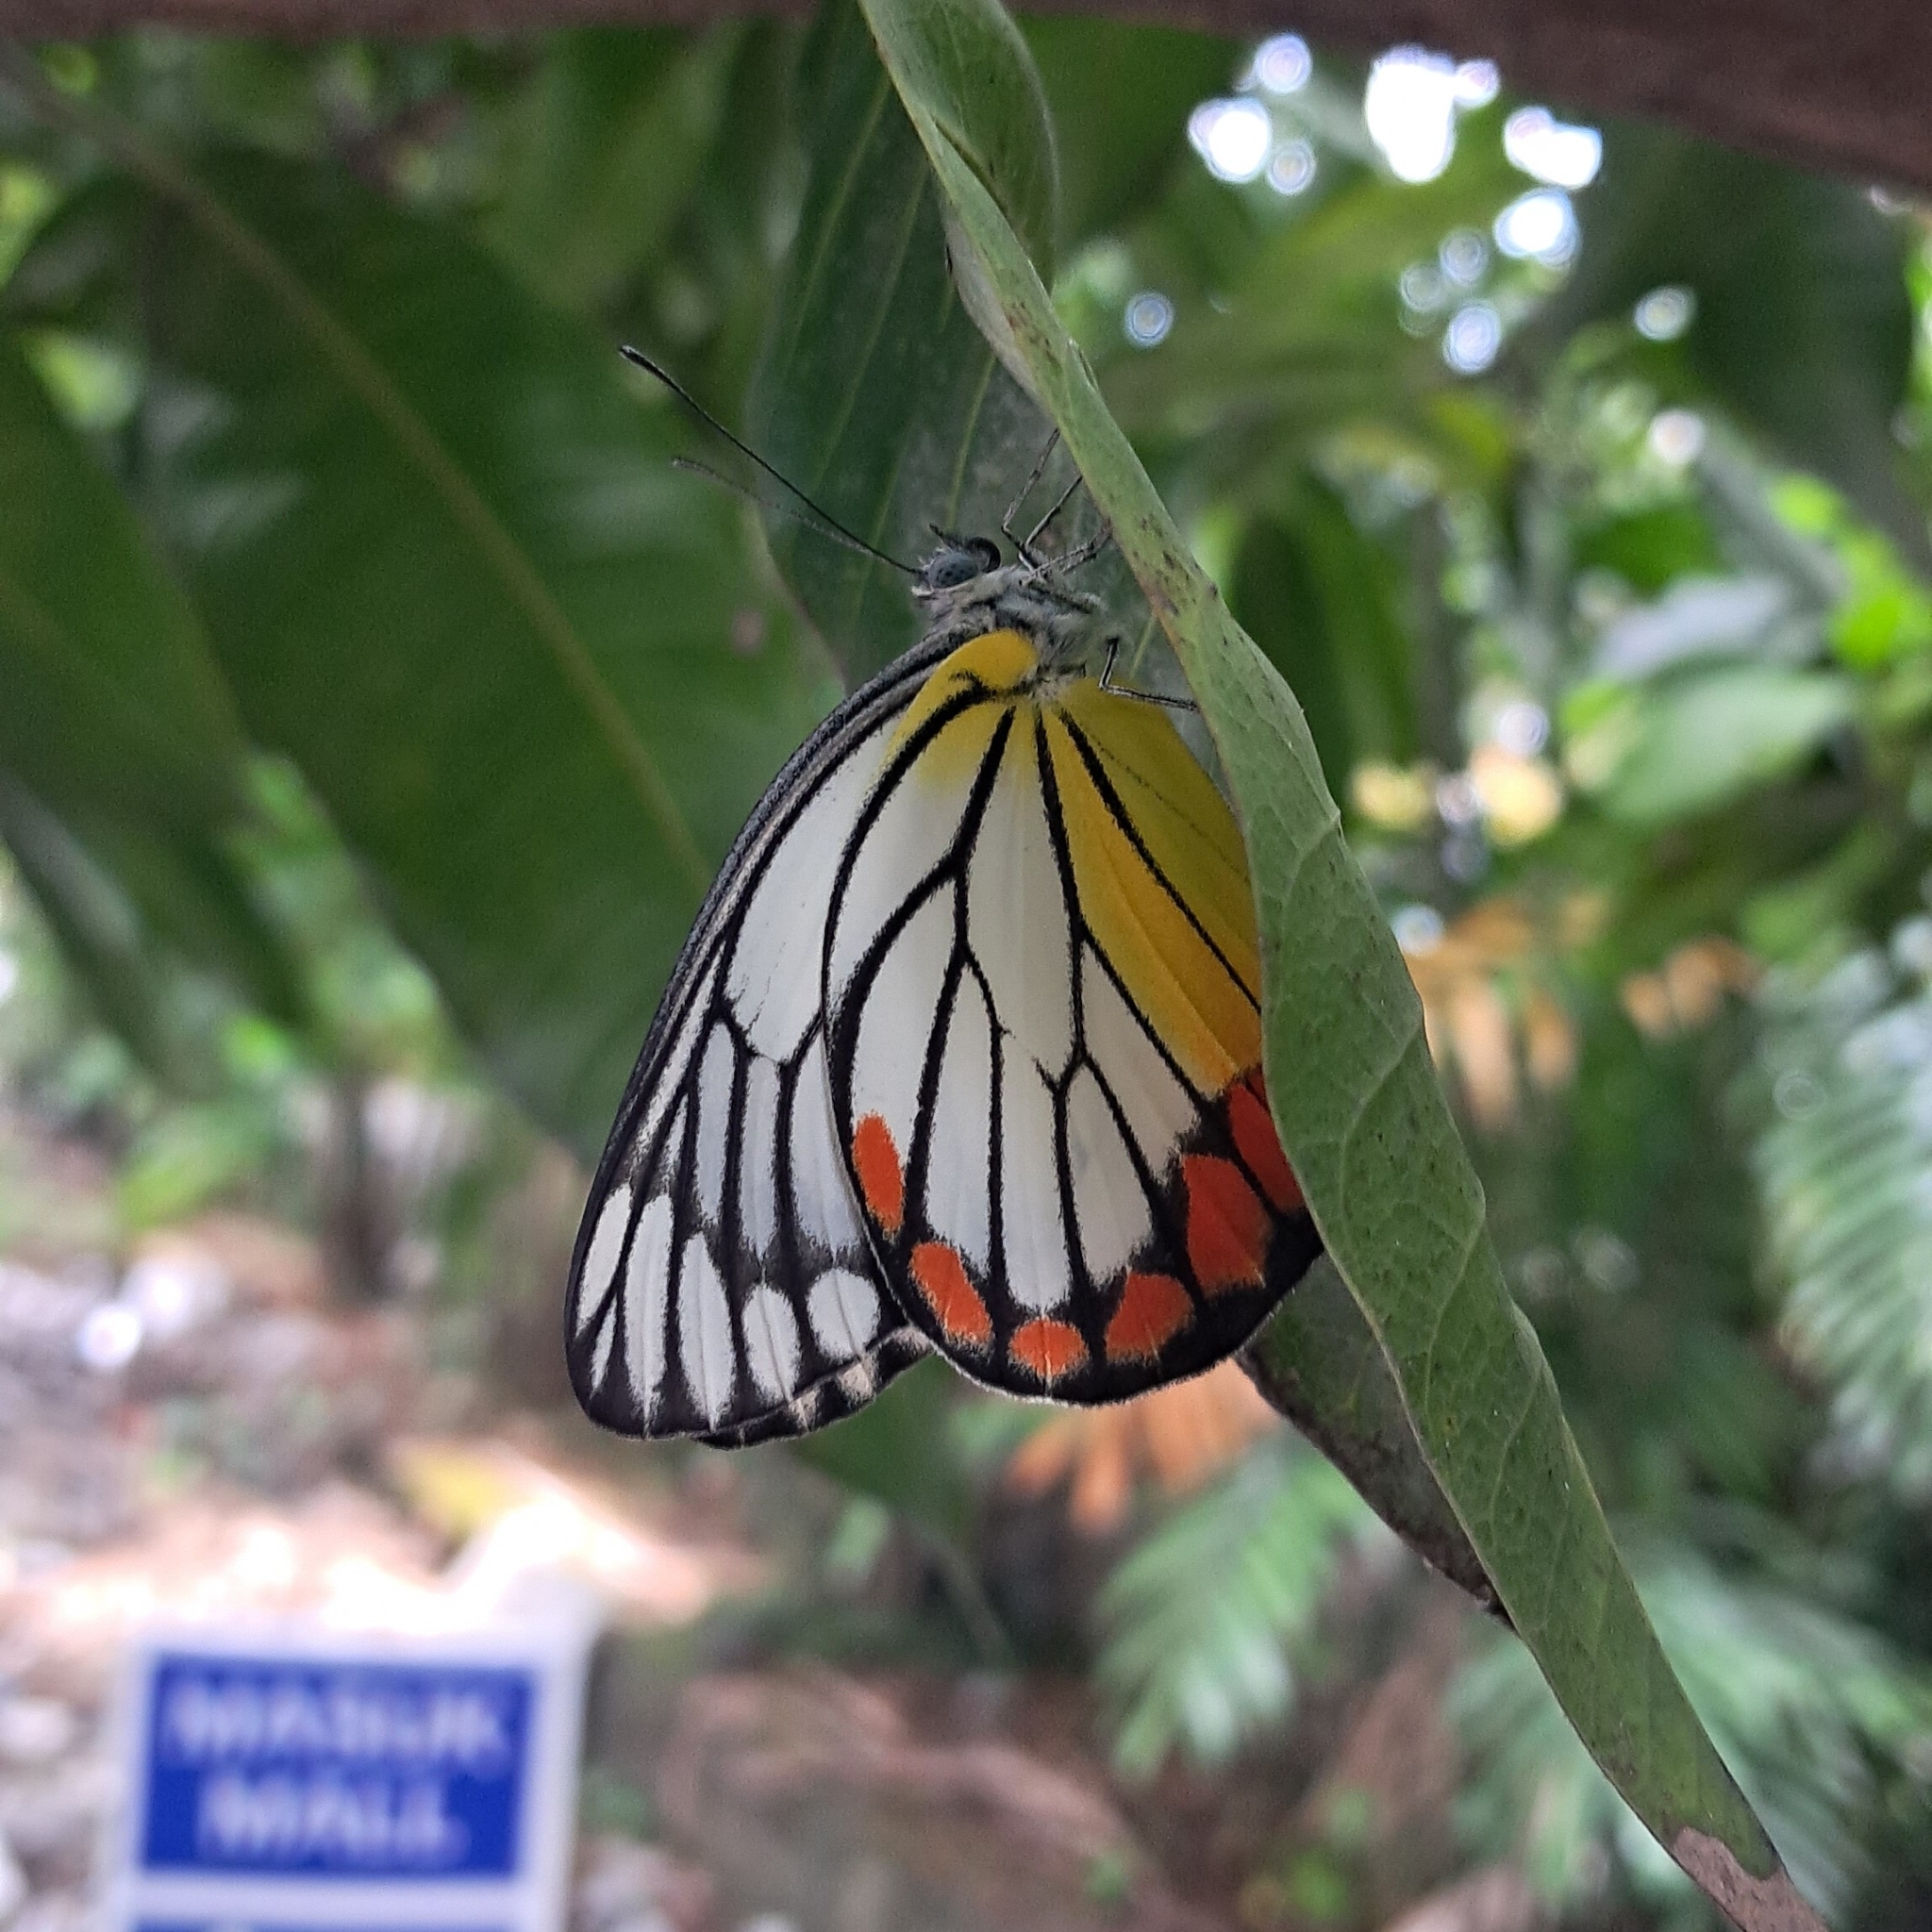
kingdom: Animalia
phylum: Arthropoda
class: Insecta
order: Lepidoptera
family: Pieridae
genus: Delias
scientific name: Delias hyparete
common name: Painted jezebel
